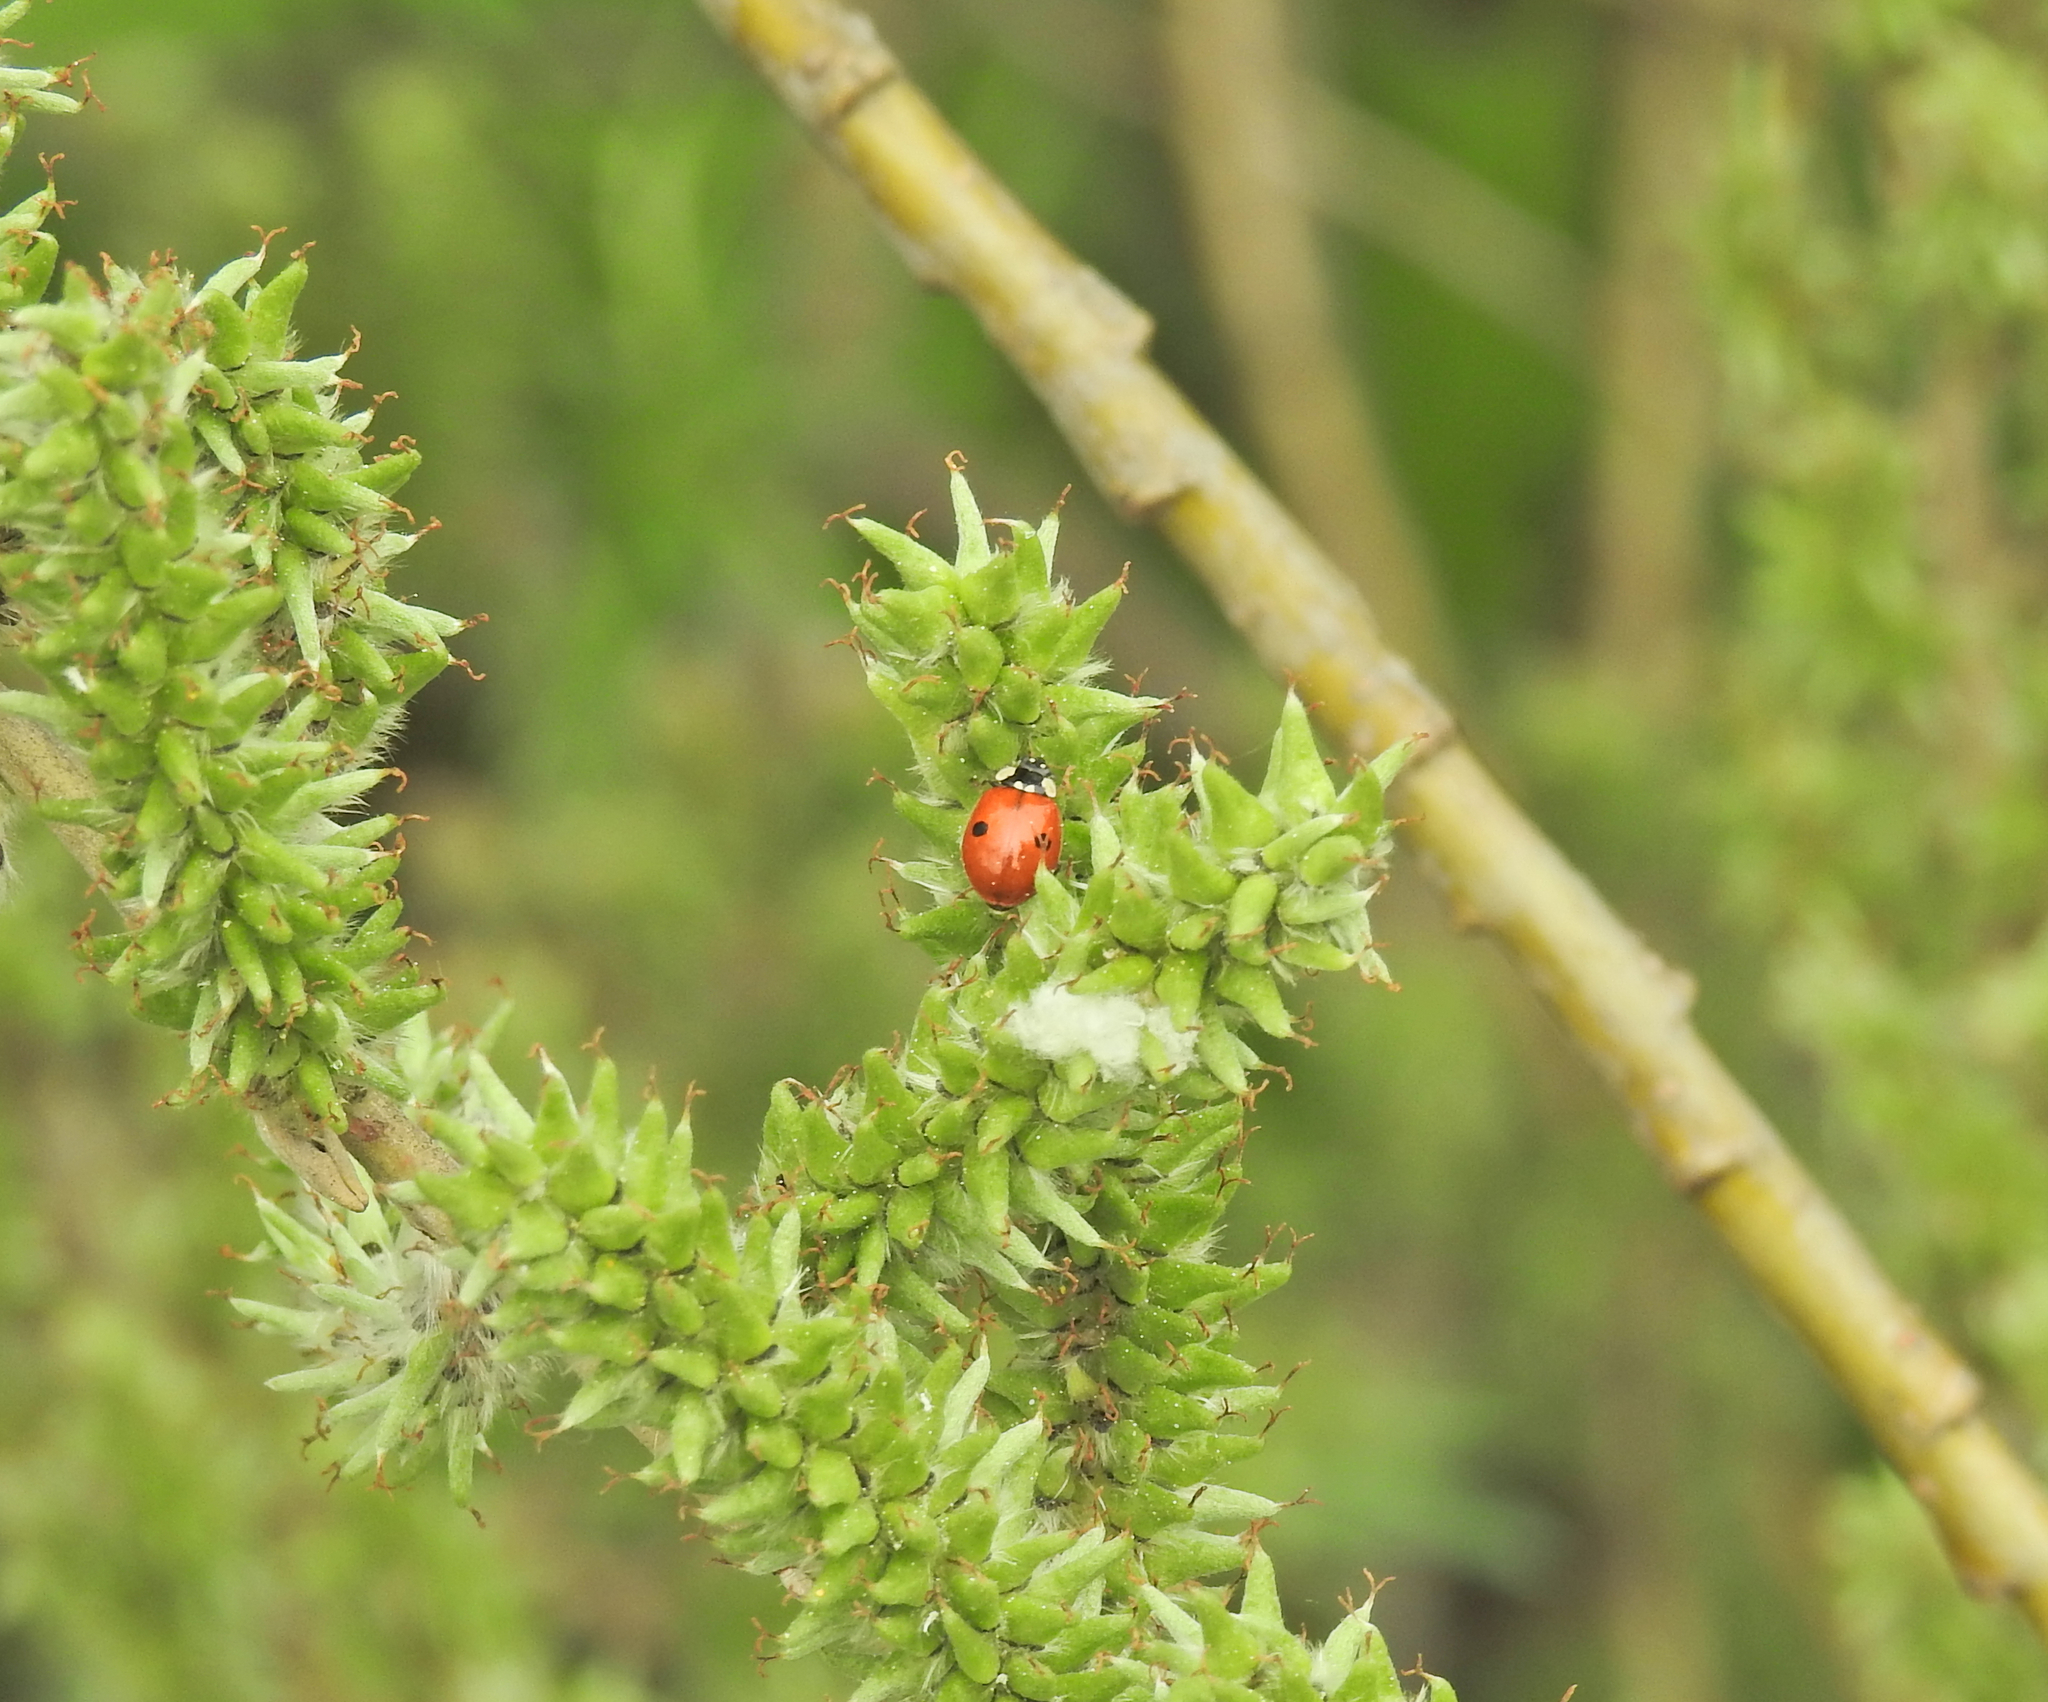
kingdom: Animalia
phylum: Arthropoda
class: Insecta
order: Coleoptera
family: Coccinellidae
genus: Adalia
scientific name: Adalia bipunctata
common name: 2-spot ladybird
